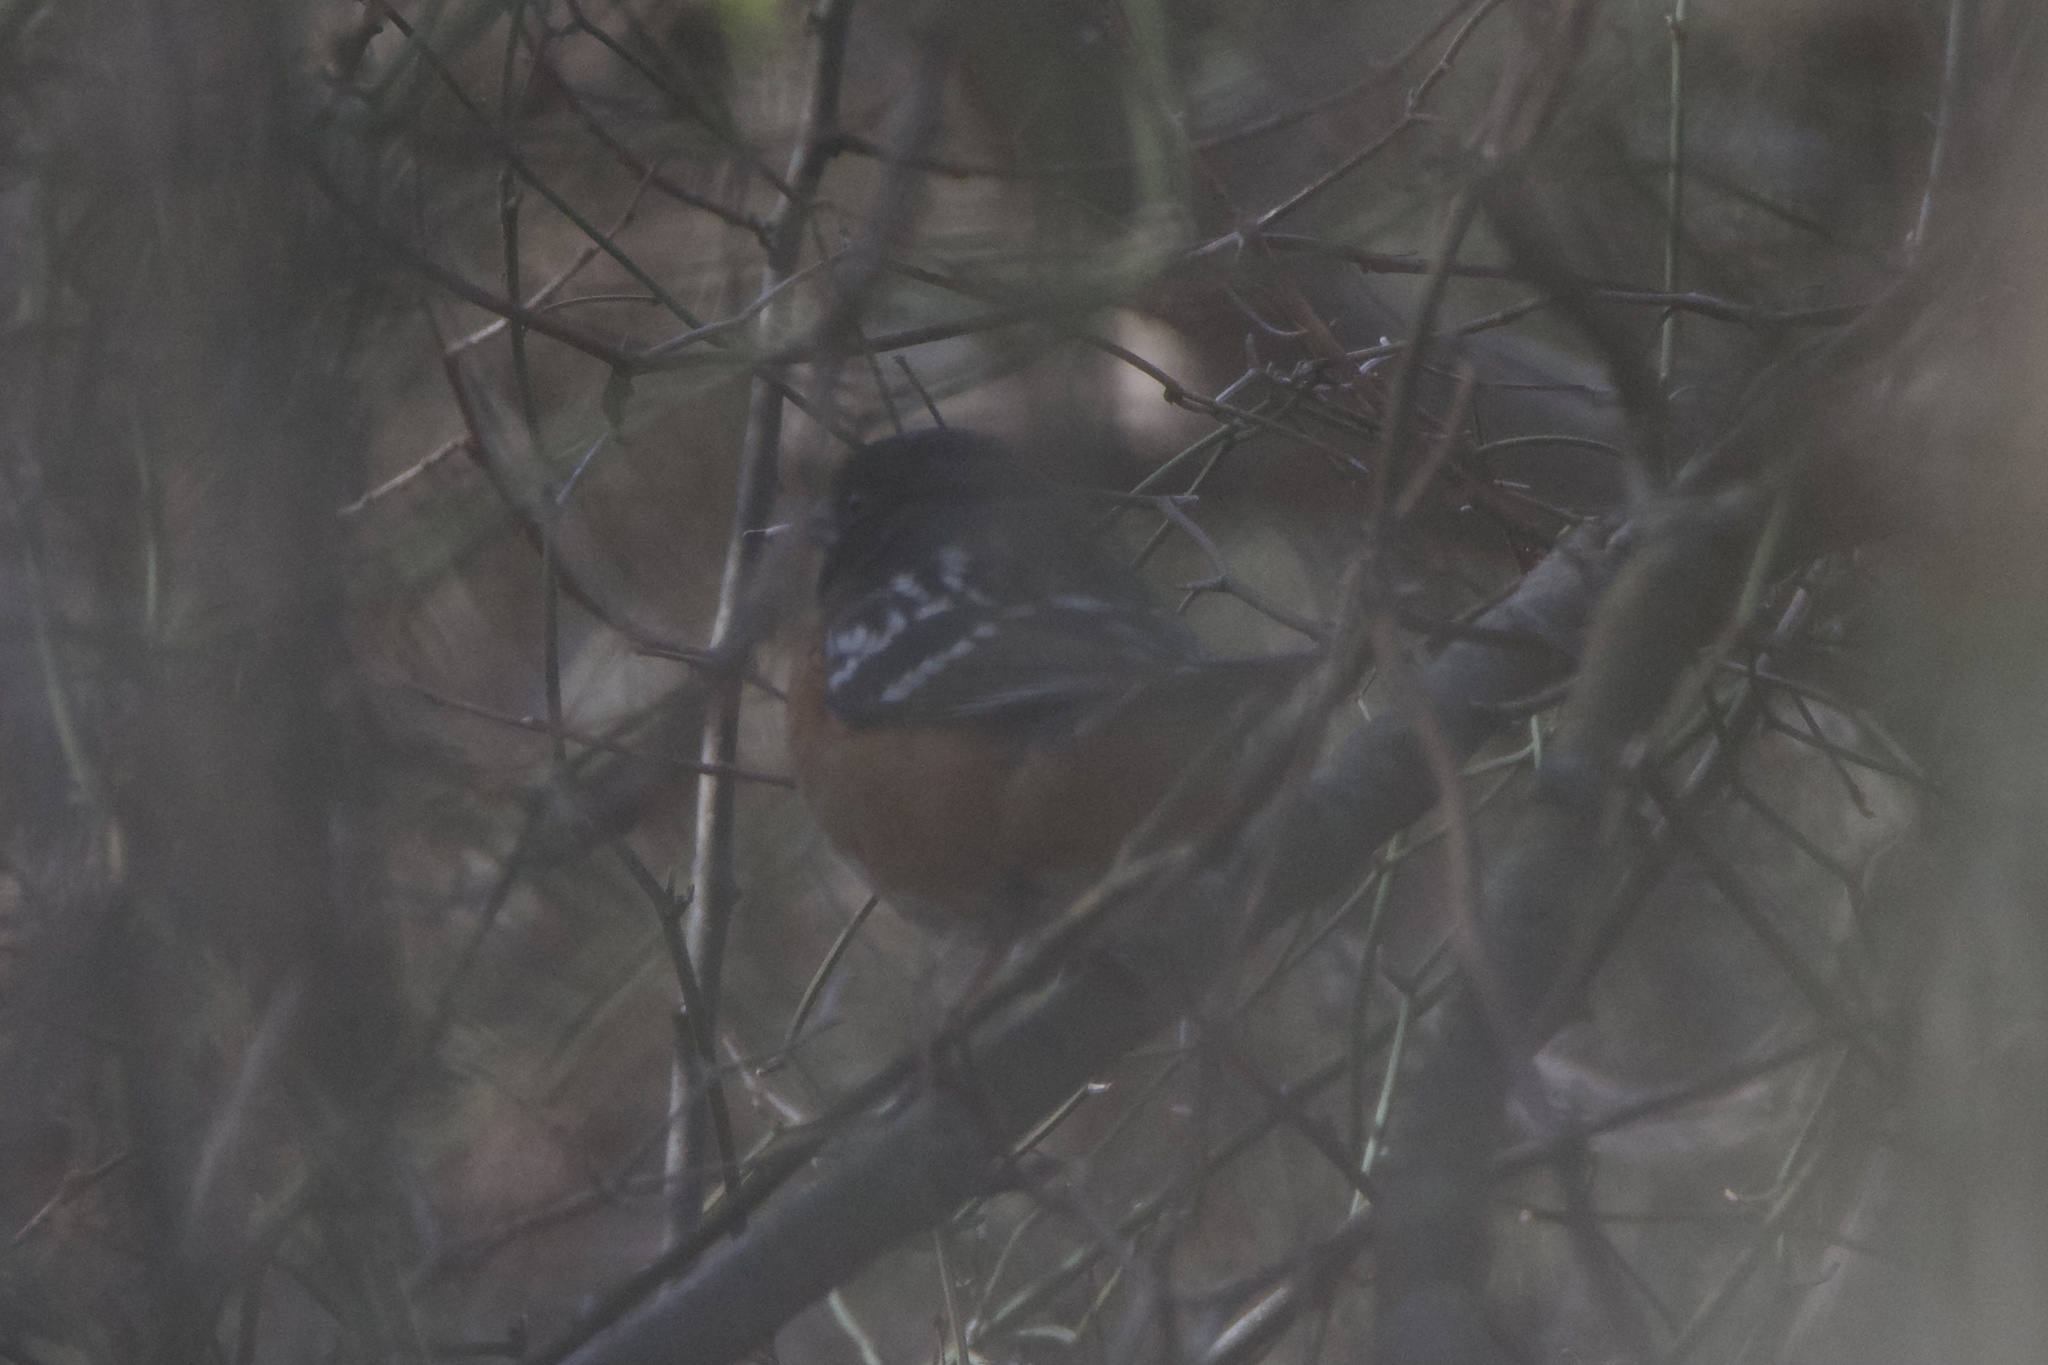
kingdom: Animalia
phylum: Chordata
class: Aves
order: Passeriformes
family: Passerellidae
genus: Pipilo
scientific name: Pipilo maculatus
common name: Spotted towhee
